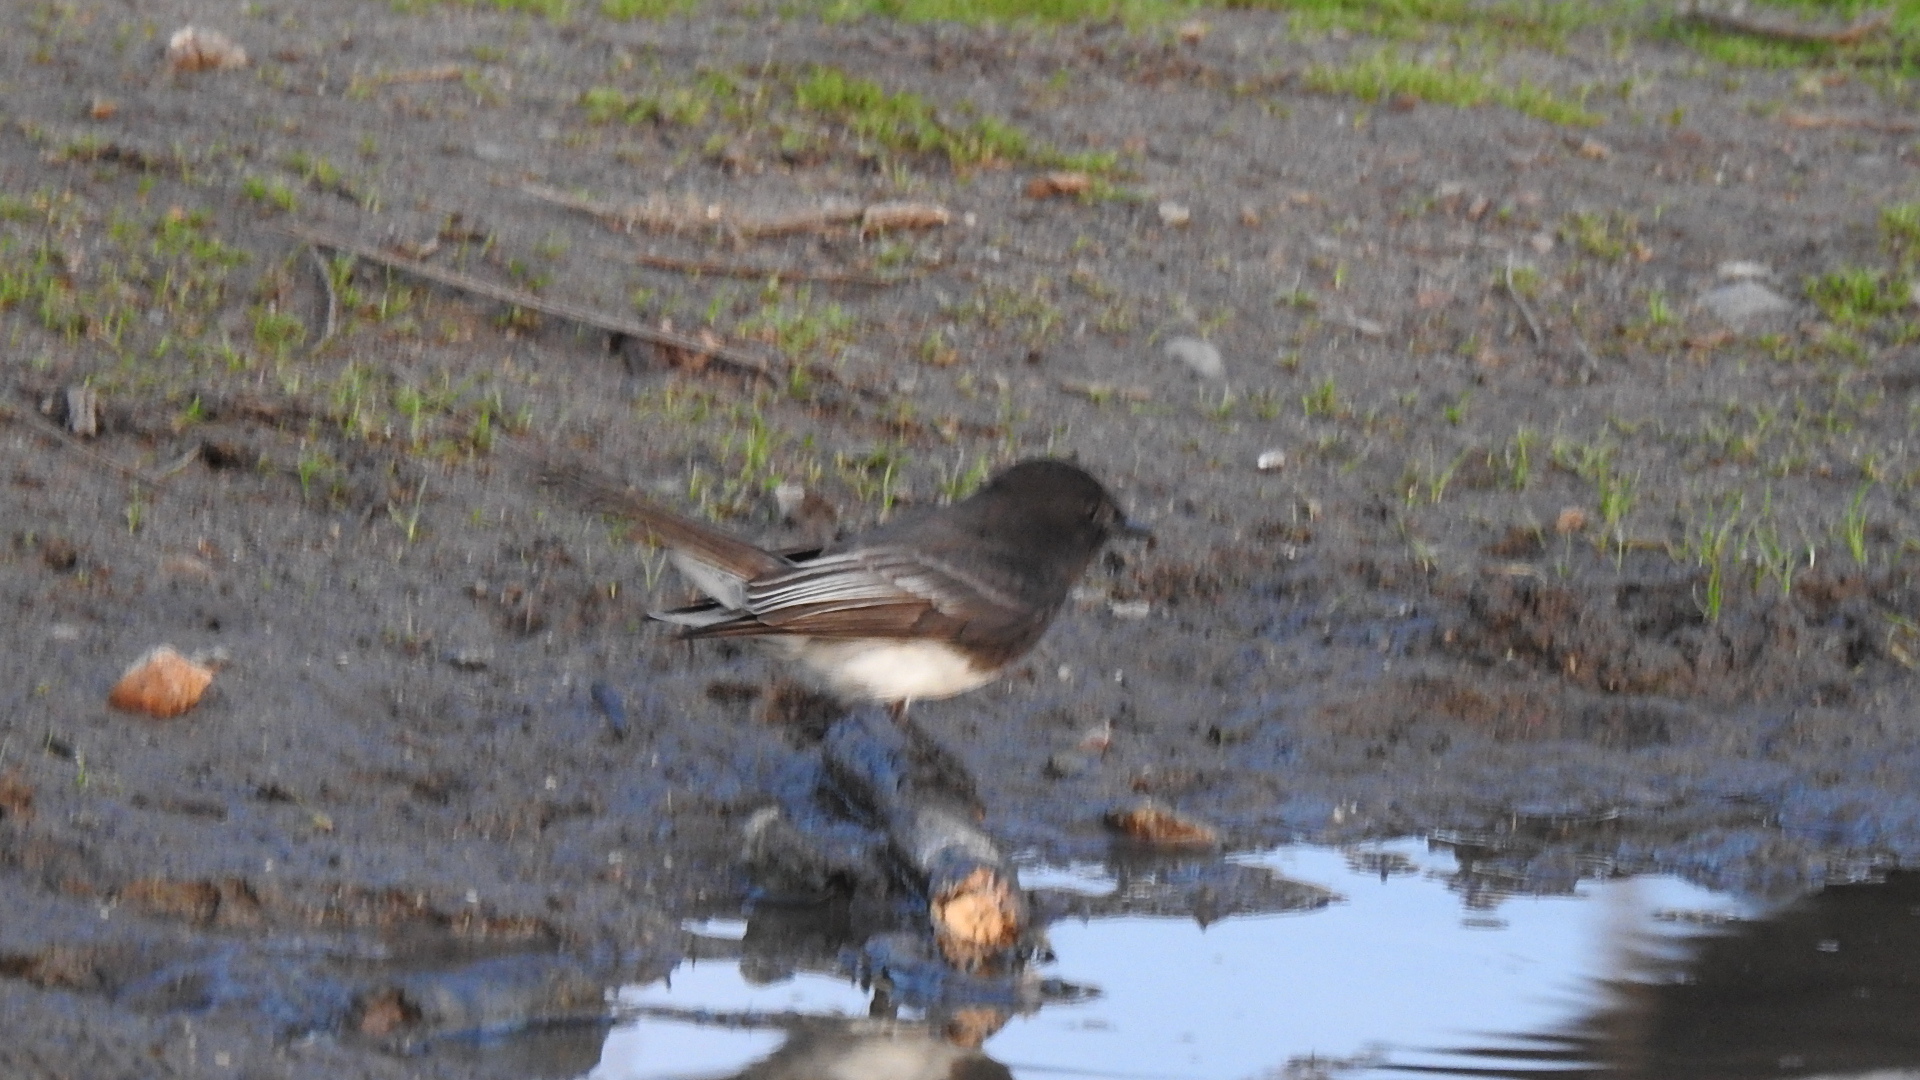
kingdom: Animalia
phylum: Chordata
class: Aves
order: Passeriformes
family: Tyrannidae
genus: Sayornis
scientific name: Sayornis nigricans
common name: Black phoebe
